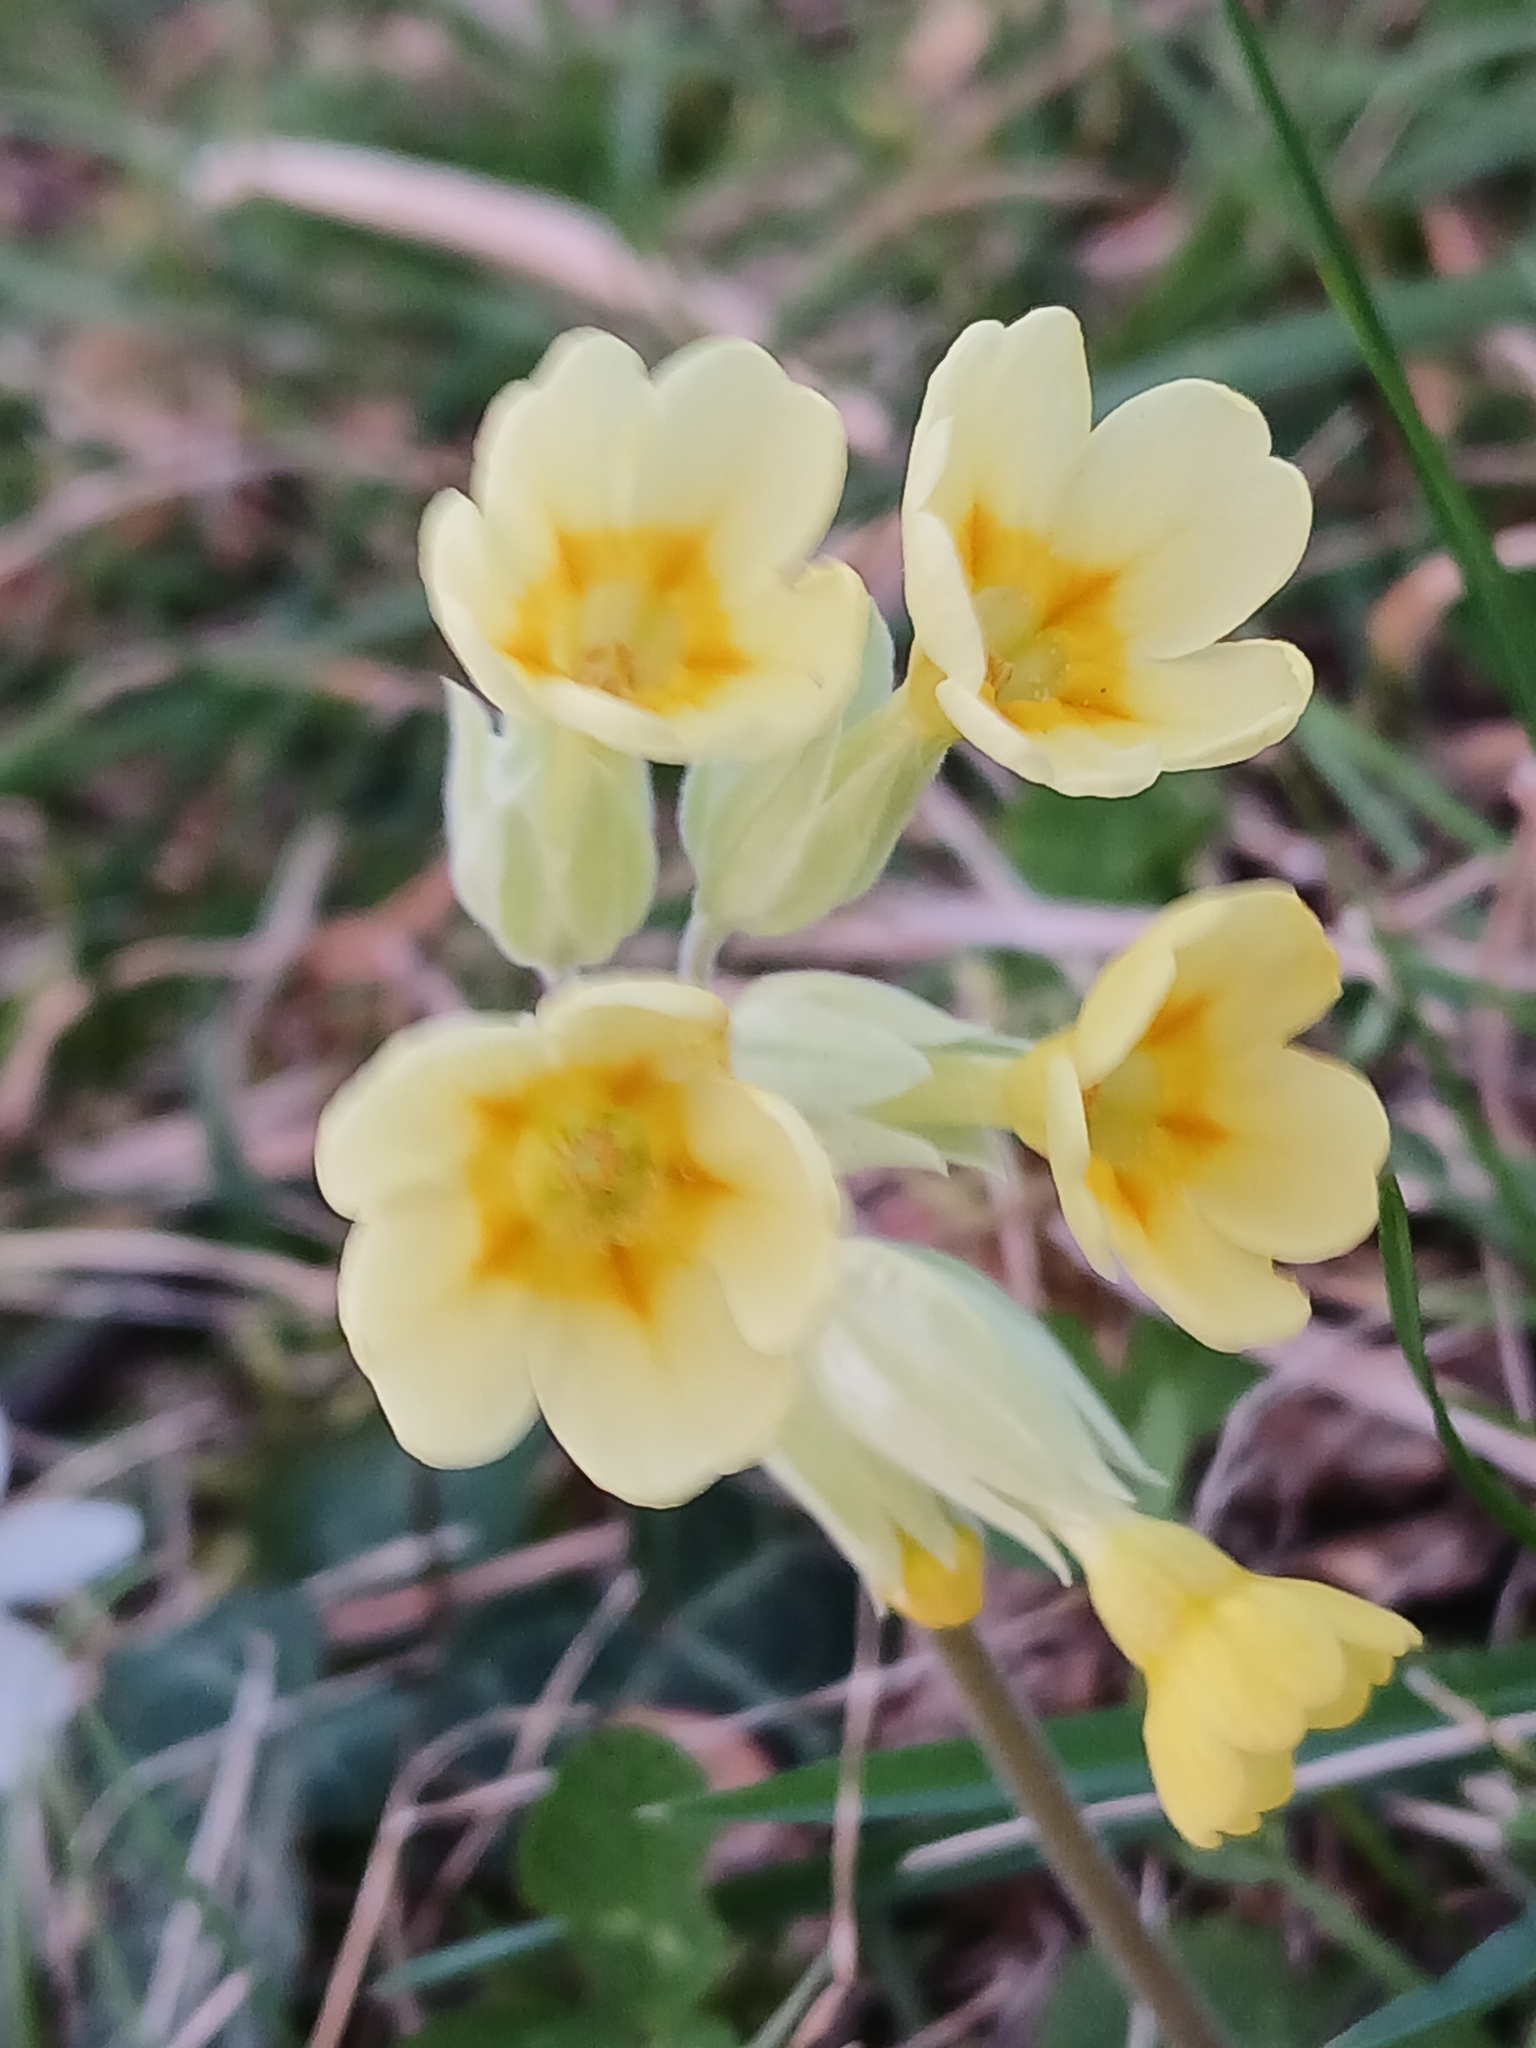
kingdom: Plantae
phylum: Tracheophyta
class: Magnoliopsida
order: Ericales
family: Primulaceae
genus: Primula
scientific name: Primula veris
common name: Cowslip
